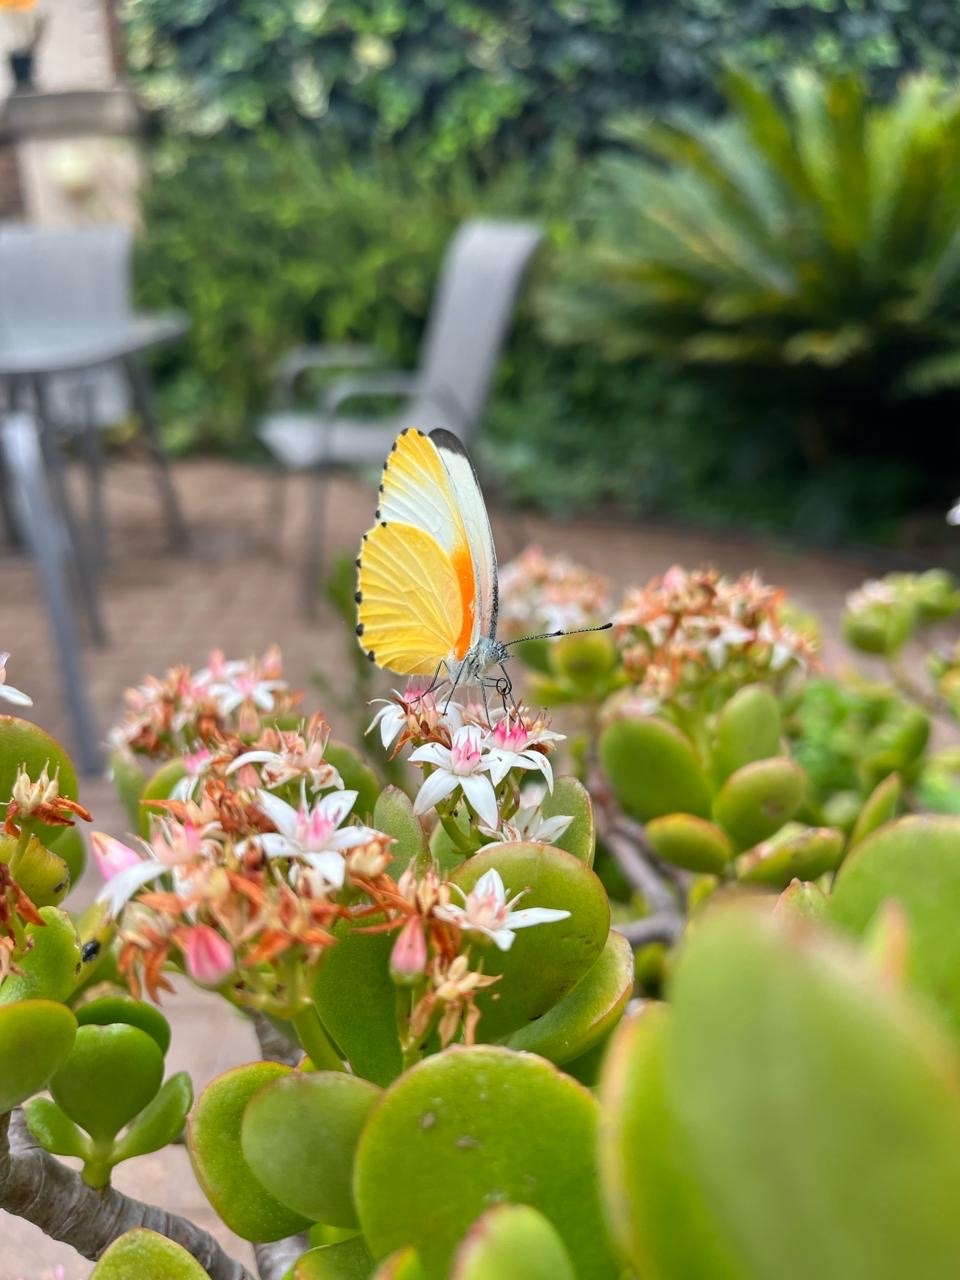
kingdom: Animalia
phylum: Arthropoda
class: Insecta
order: Lepidoptera
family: Pieridae
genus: Mylothris
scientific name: Mylothris agathina
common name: Eastern dotted border
